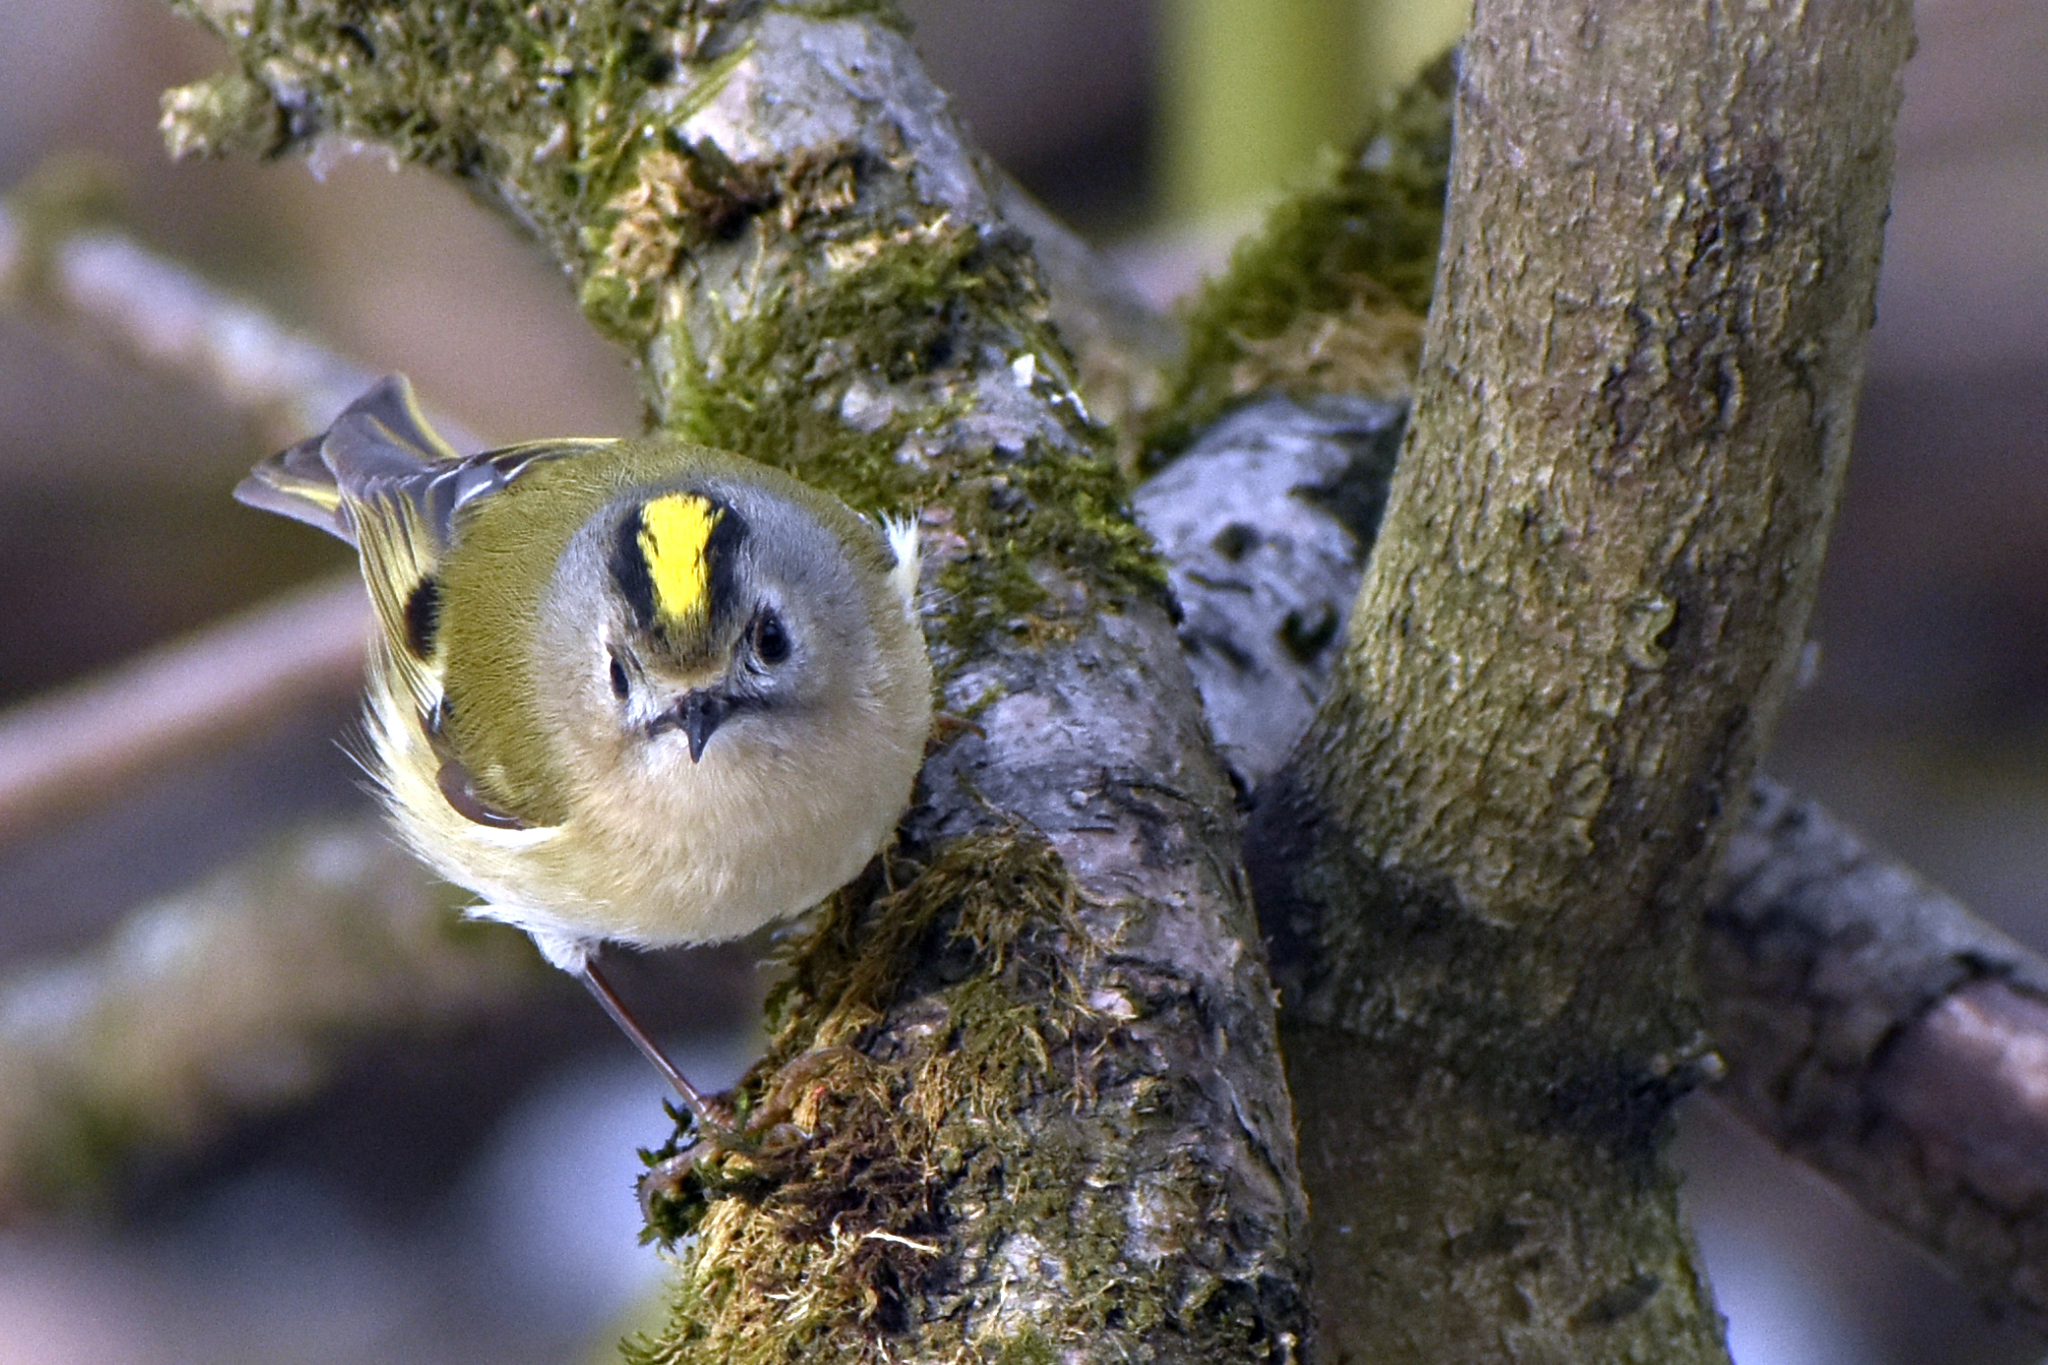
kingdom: Animalia
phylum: Chordata
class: Aves
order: Passeriformes
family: Regulidae
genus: Regulus
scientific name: Regulus regulus
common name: Goldcrest
